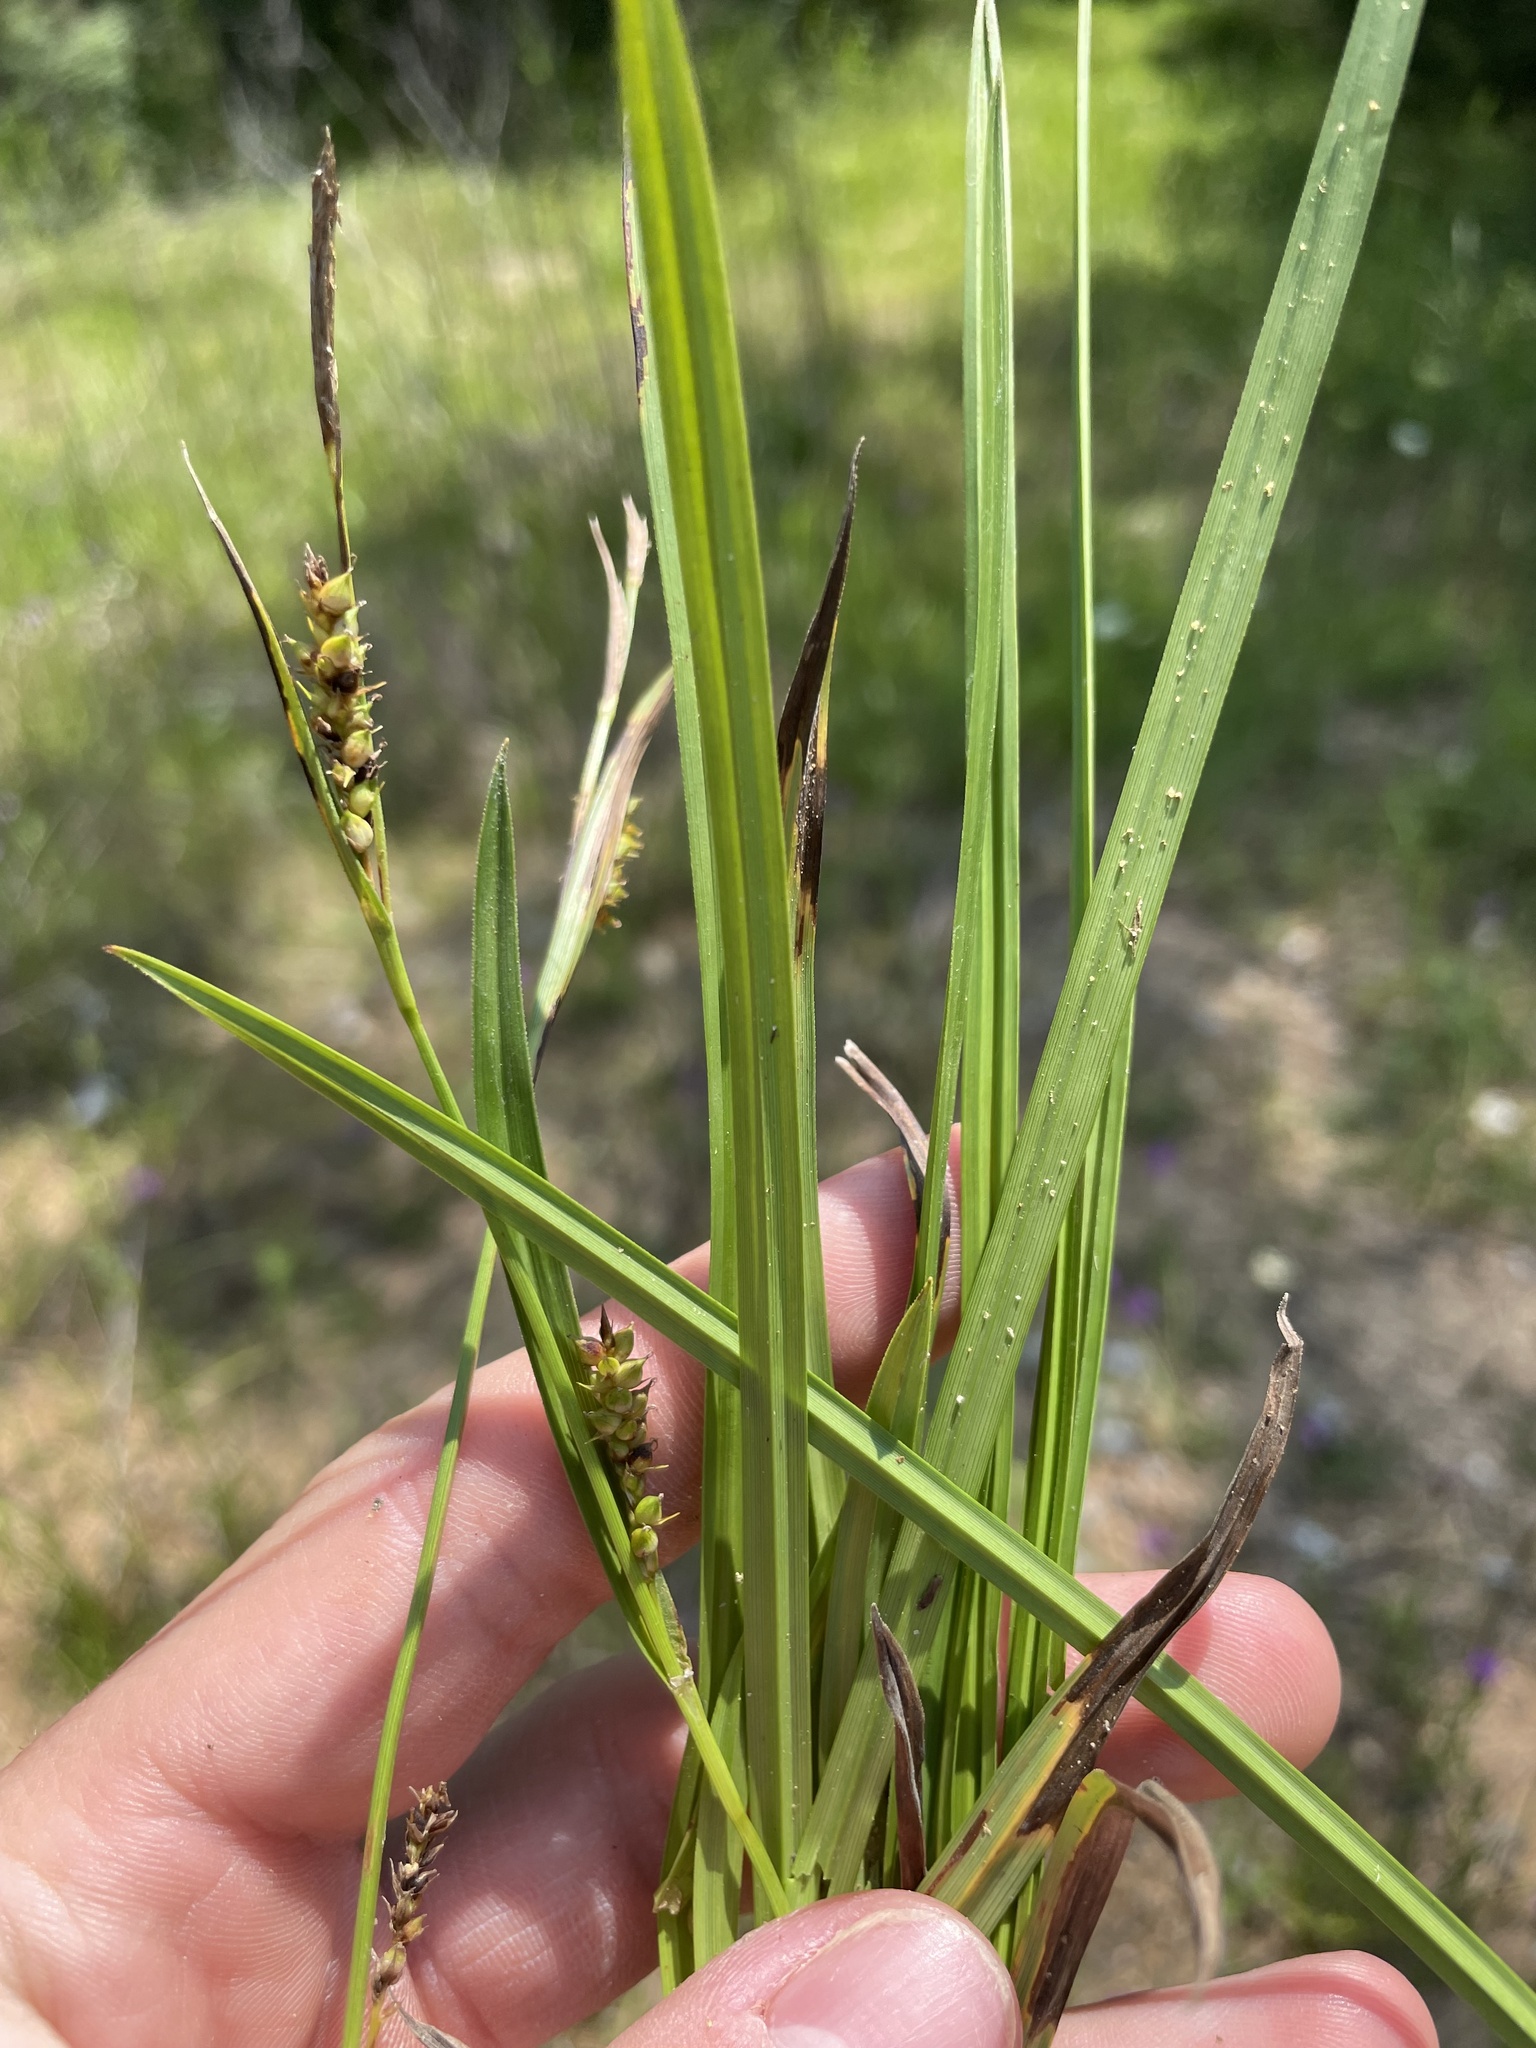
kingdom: Plantae
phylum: Tracheophyta
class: Liliopsida
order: Poales
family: Cyperaceae
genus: Carex
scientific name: Carex microdonta
